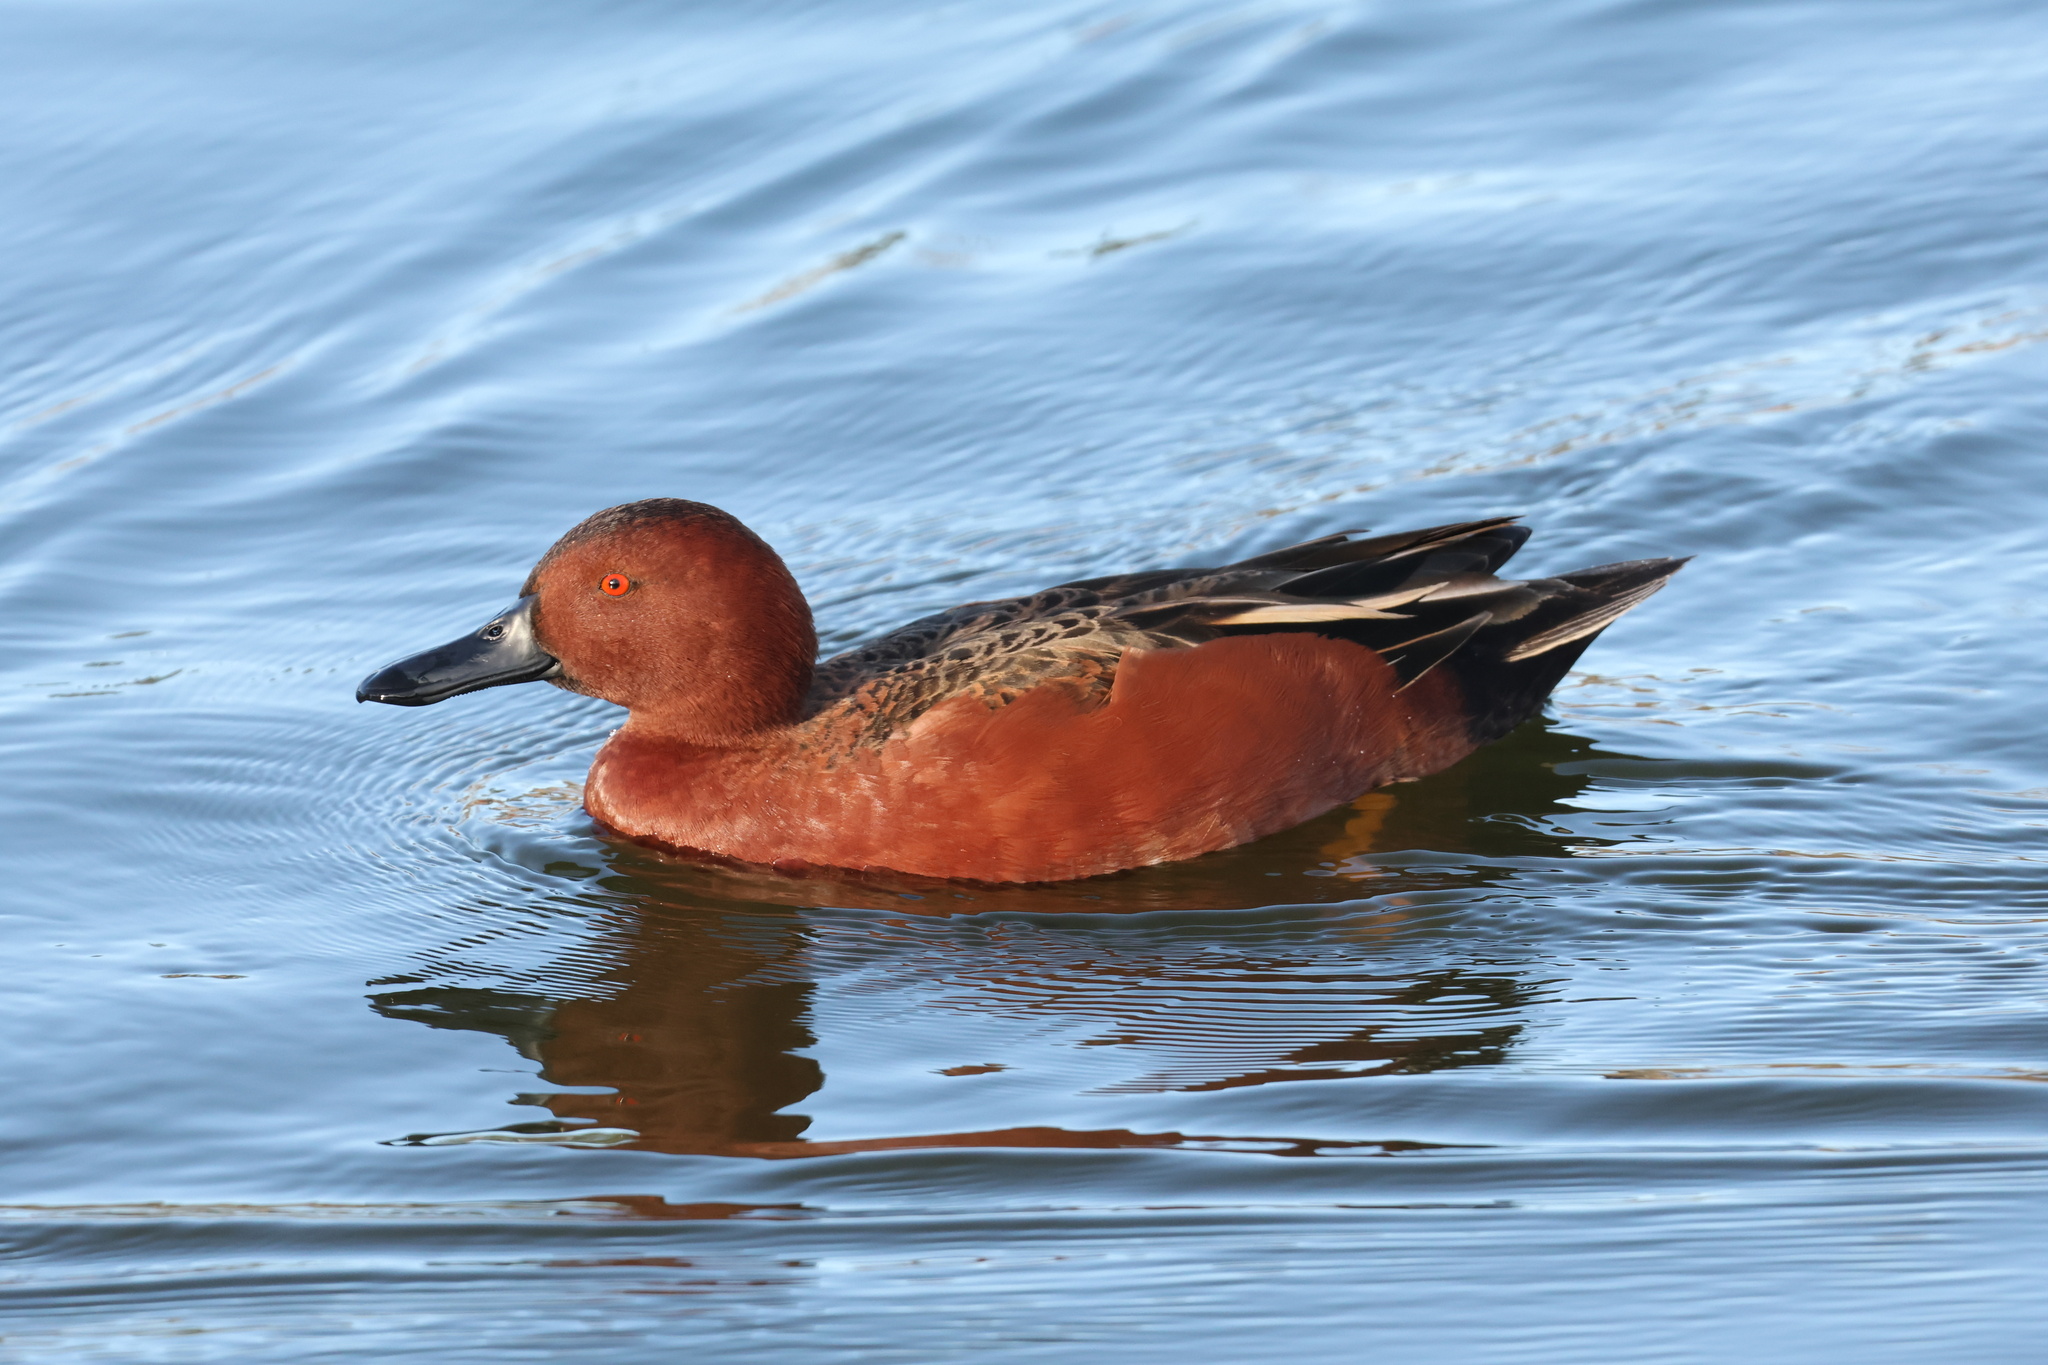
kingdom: Animalia
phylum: Chordata
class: Aves
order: Anseriformes
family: Anatidae
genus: Spatula
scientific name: Spatula cyanoptera
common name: Cinnamon teal
